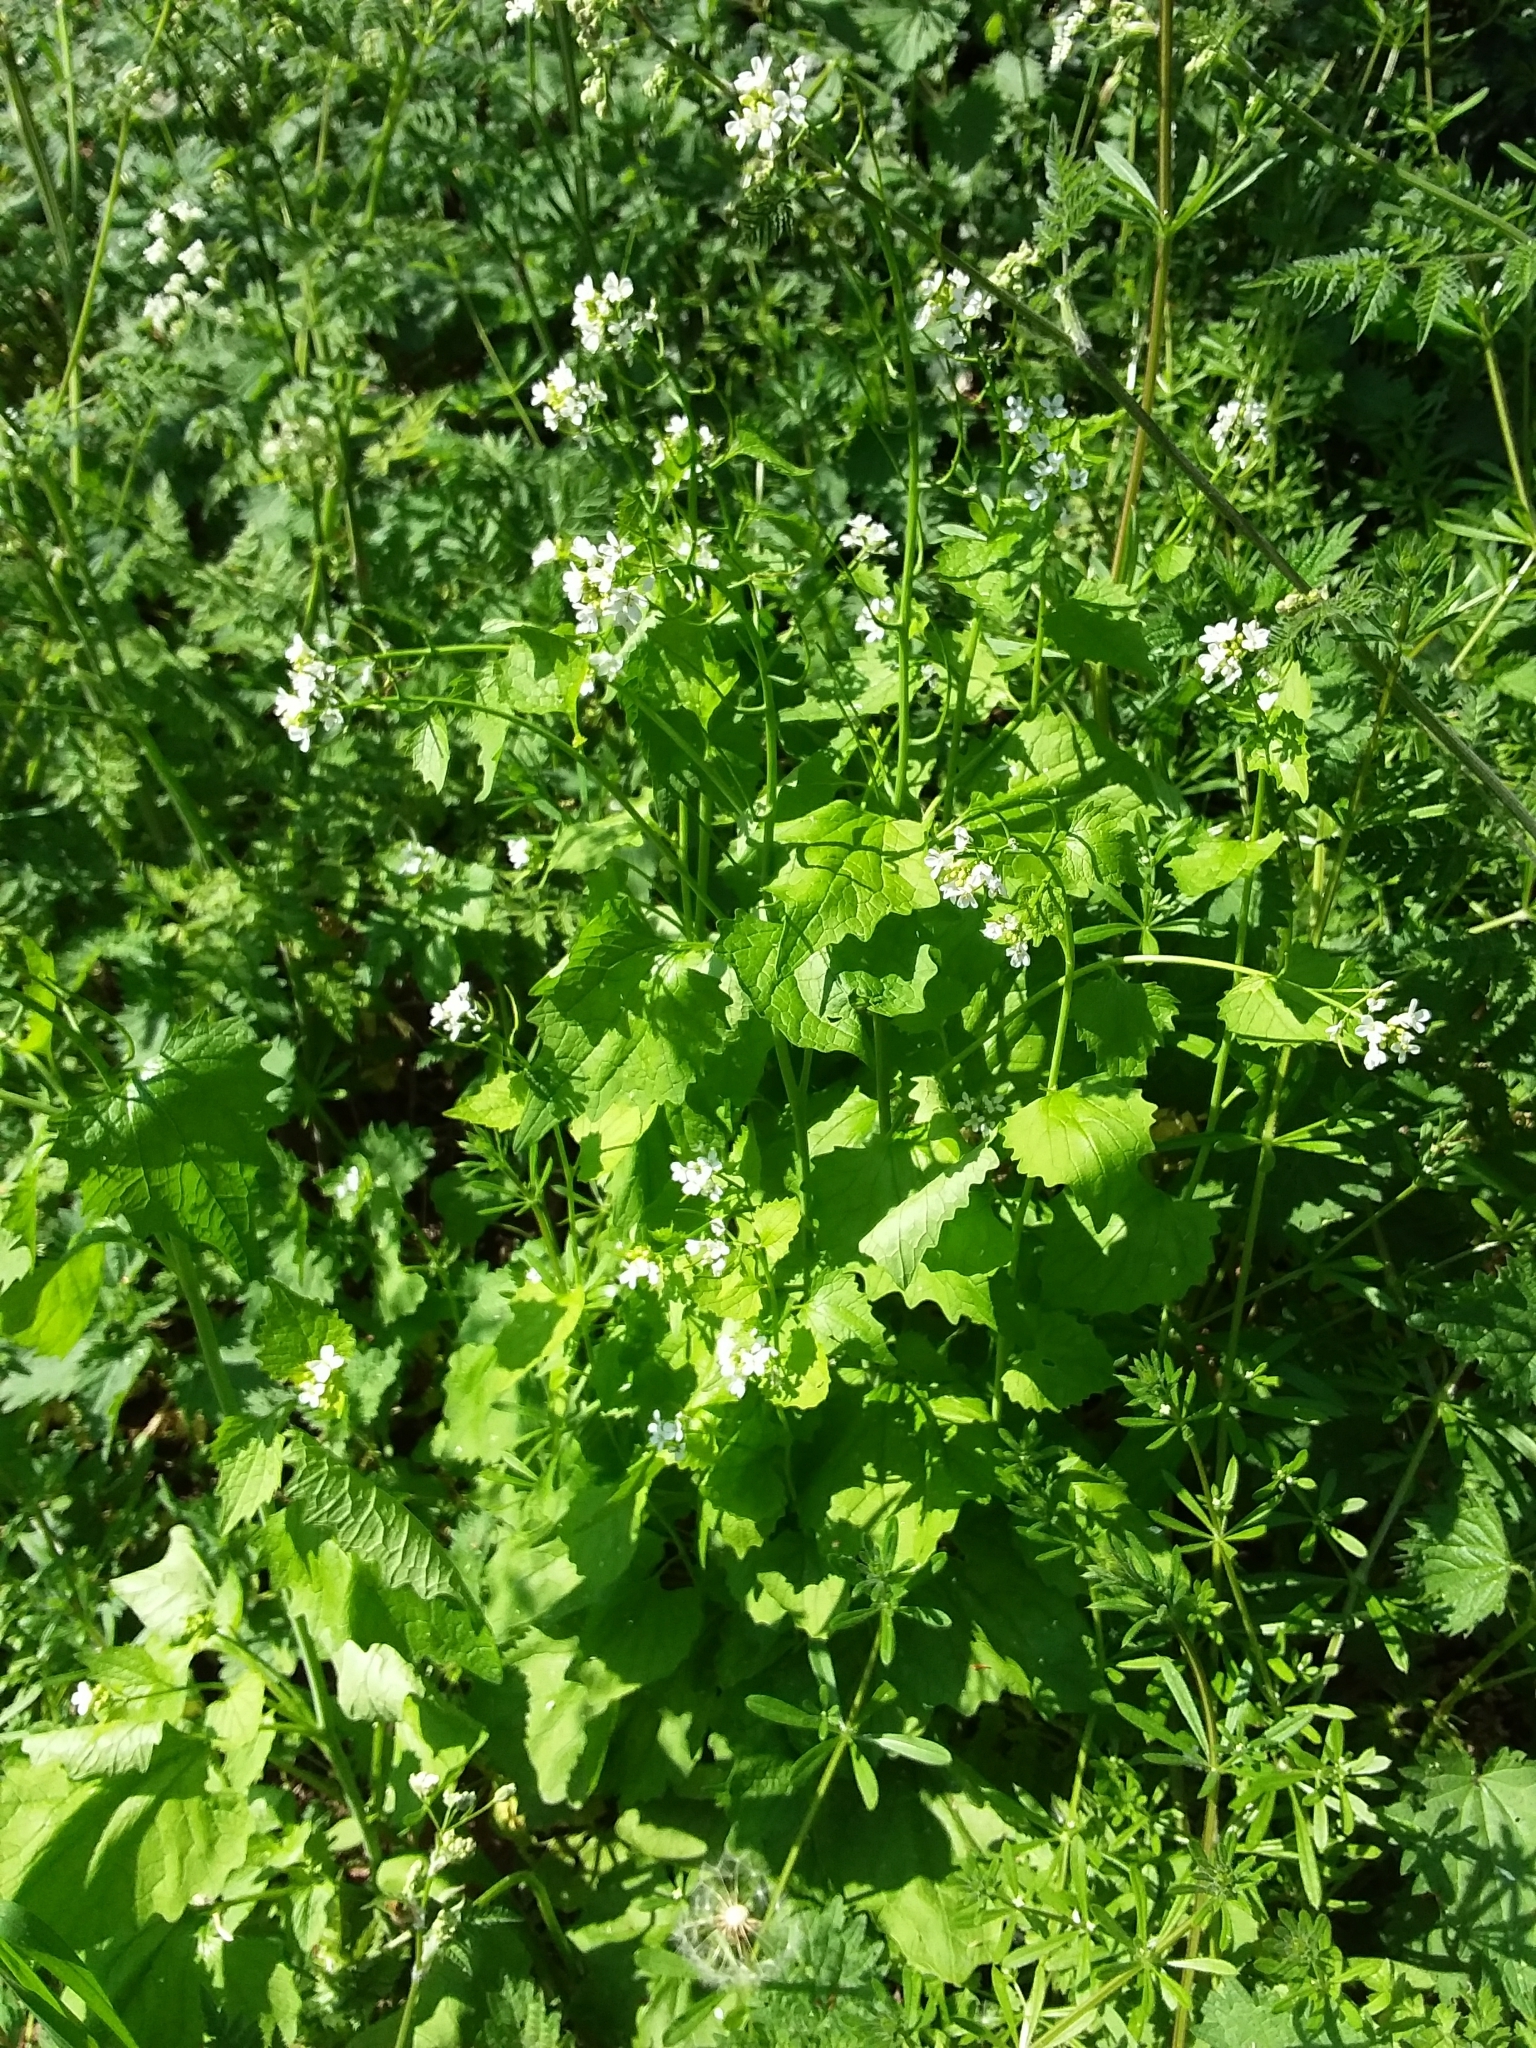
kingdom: Plantae
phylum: Tracheophyta
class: Magnoliopsida
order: Brassicales
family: Brassicaceae
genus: Alliaria
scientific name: Alliaria petiolata
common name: Garlic mustard
